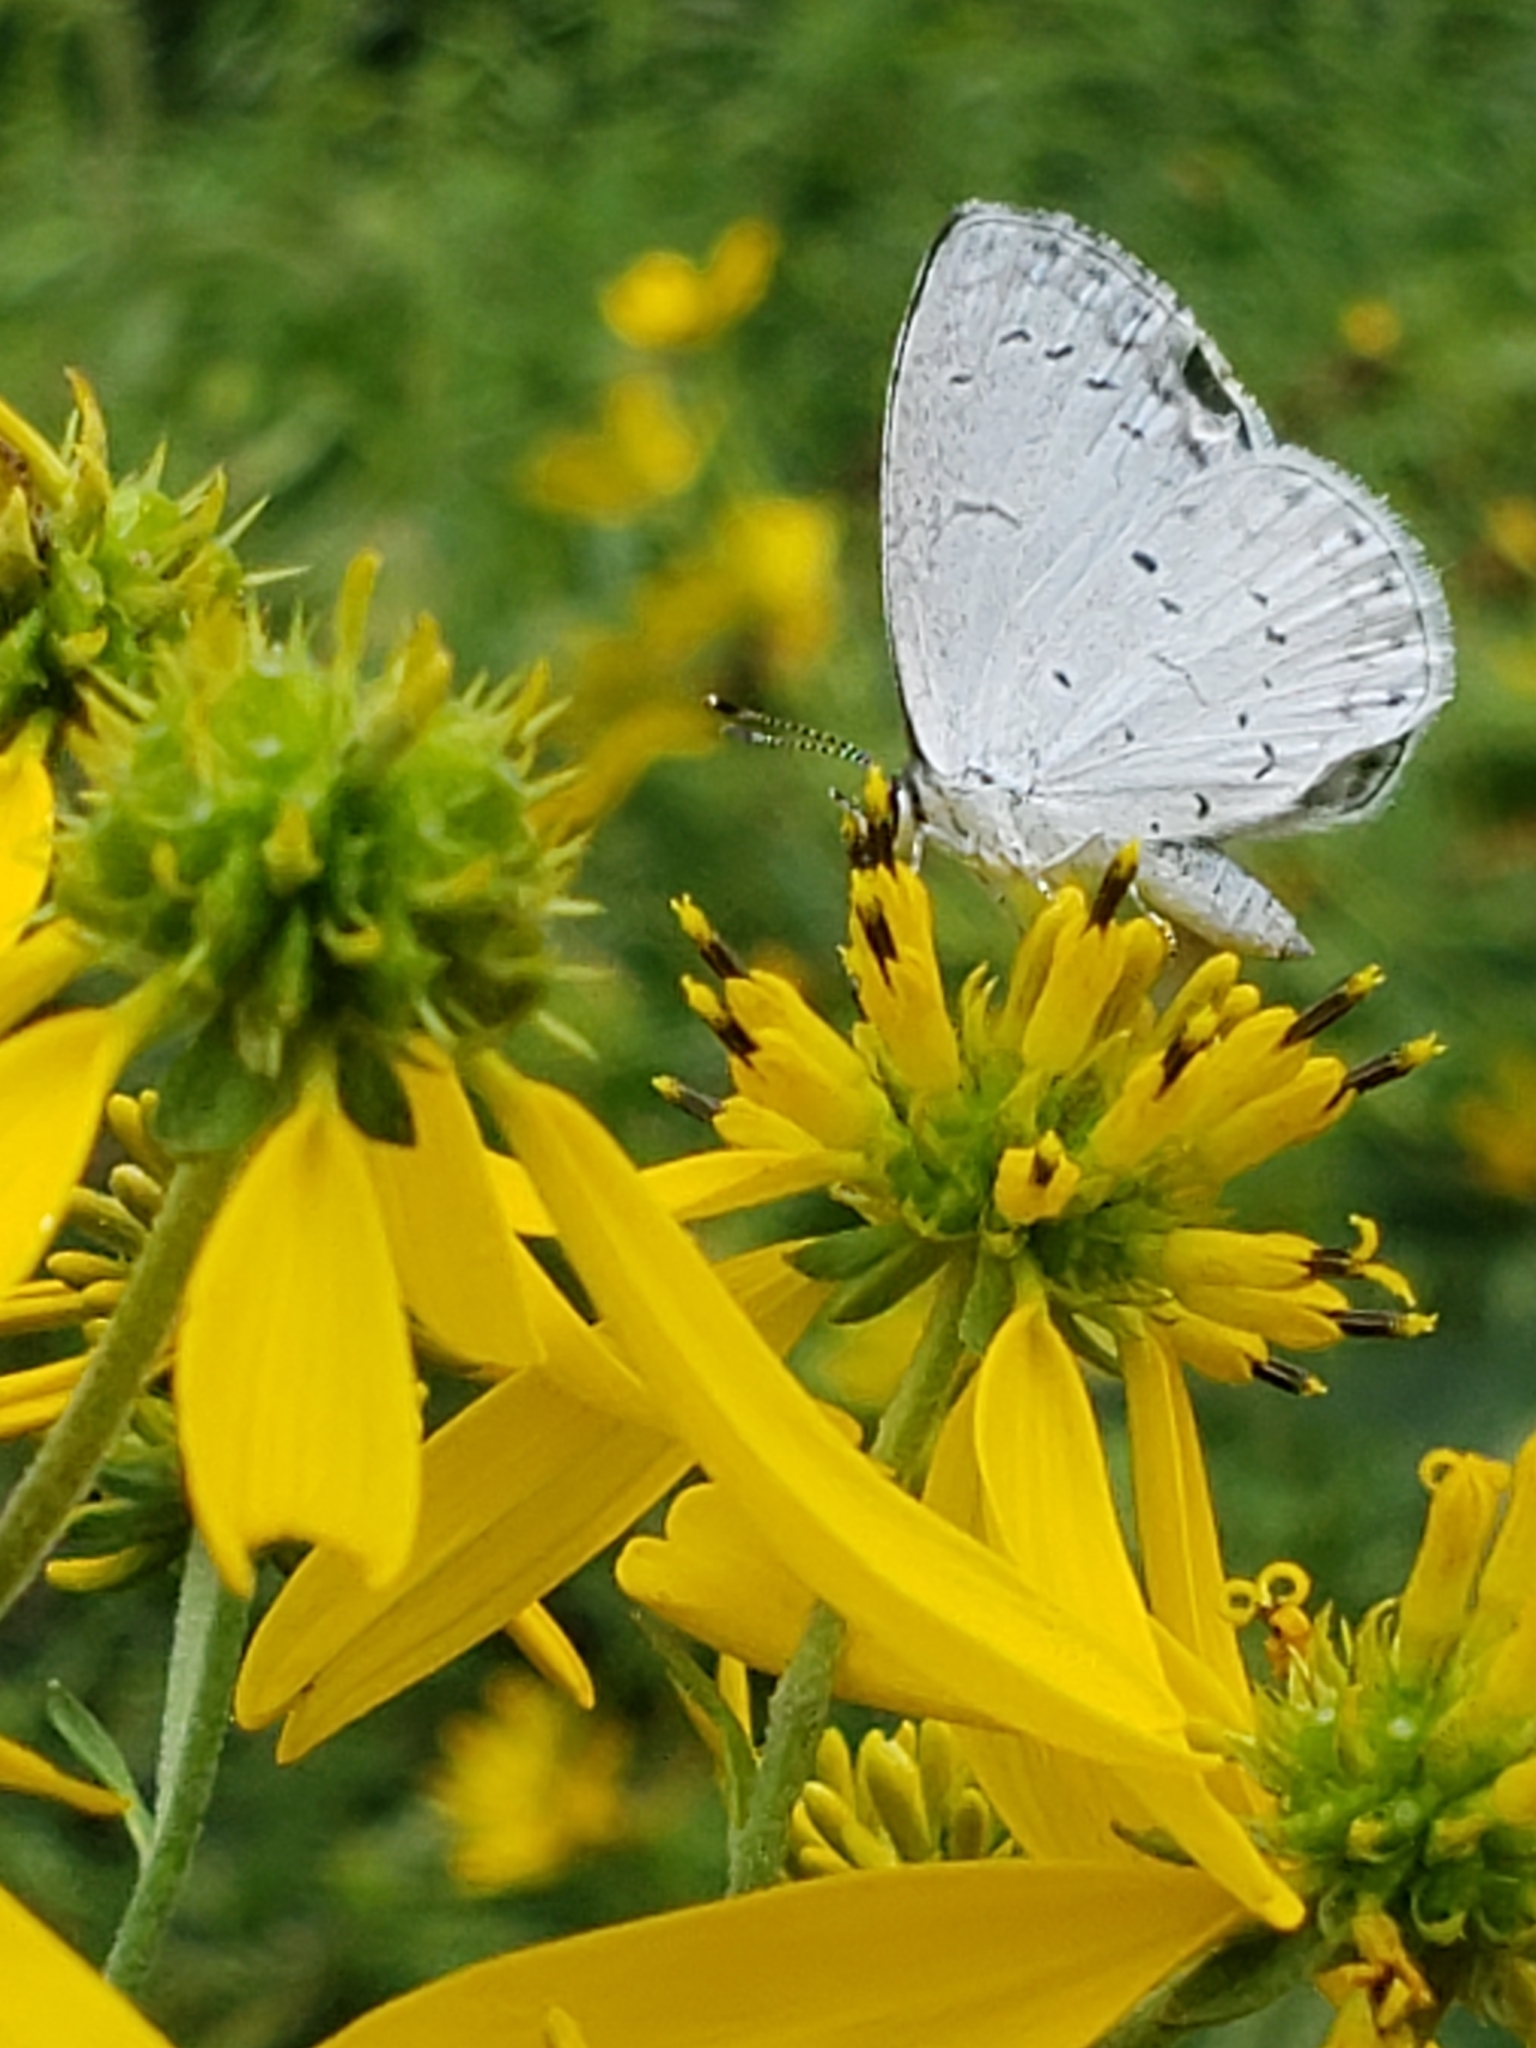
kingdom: Animalia
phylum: Arthropoda
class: Insecta
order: Lepidoptera
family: Lycaenidae
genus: Cyaniris
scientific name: Cyaniris neglecta
